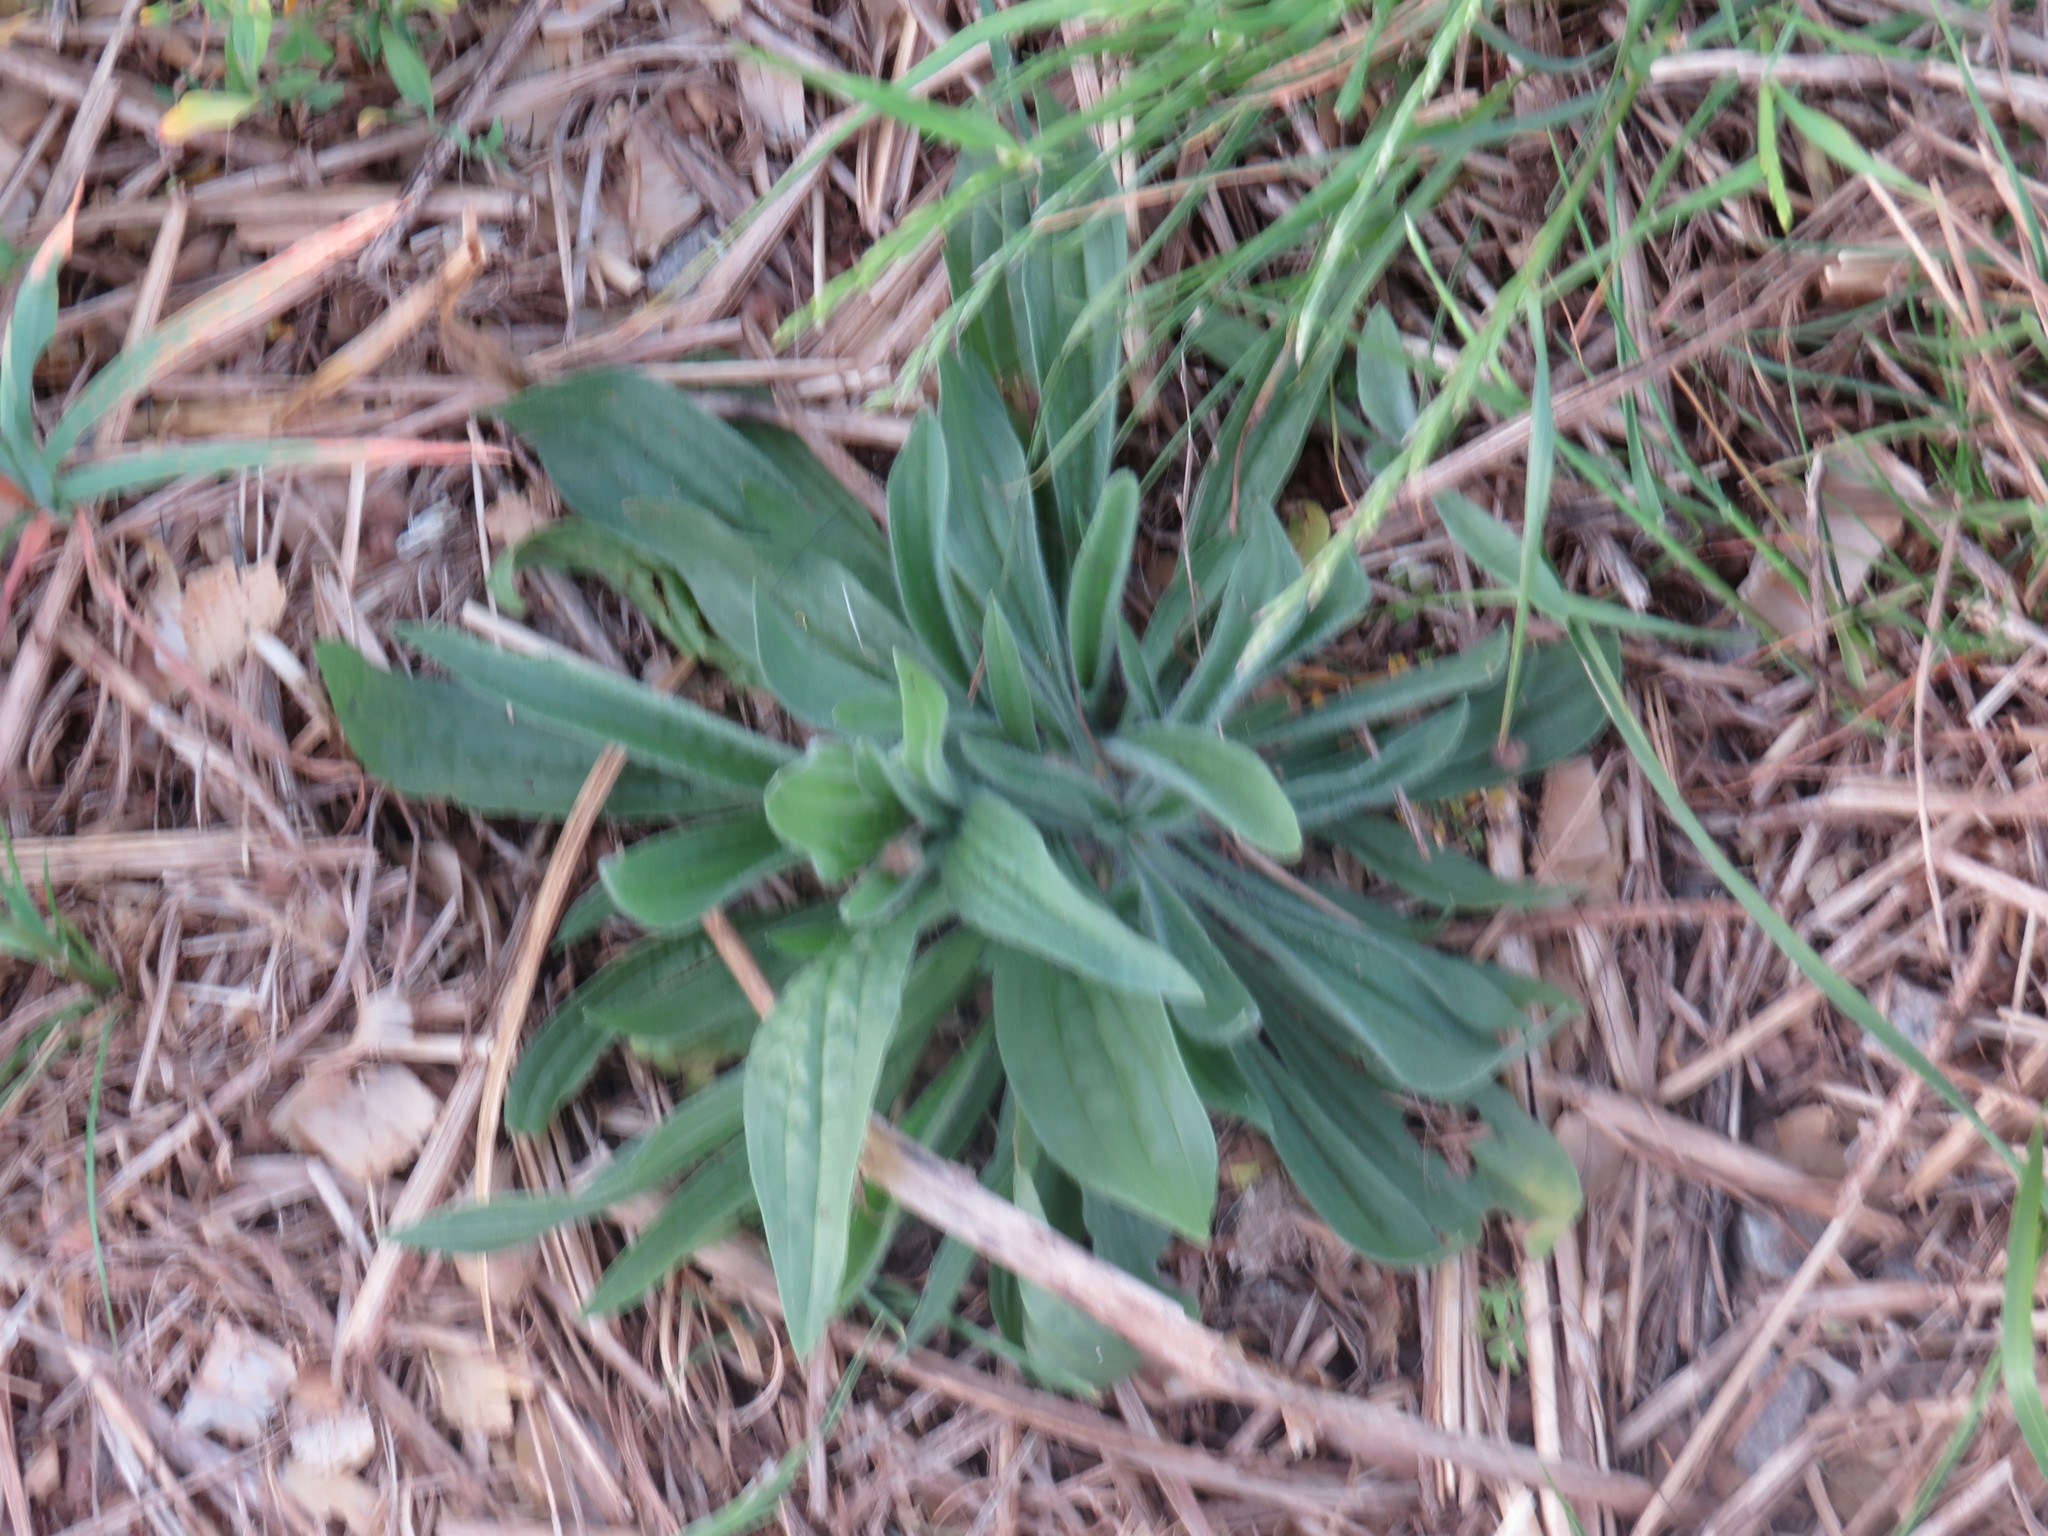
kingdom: Plantae
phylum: Tracheophyta
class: Magnoliopsida
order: Lamiales
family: Plantaginaceae
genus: Plantago
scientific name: Plantago lanceolata
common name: Ribwort plantain
